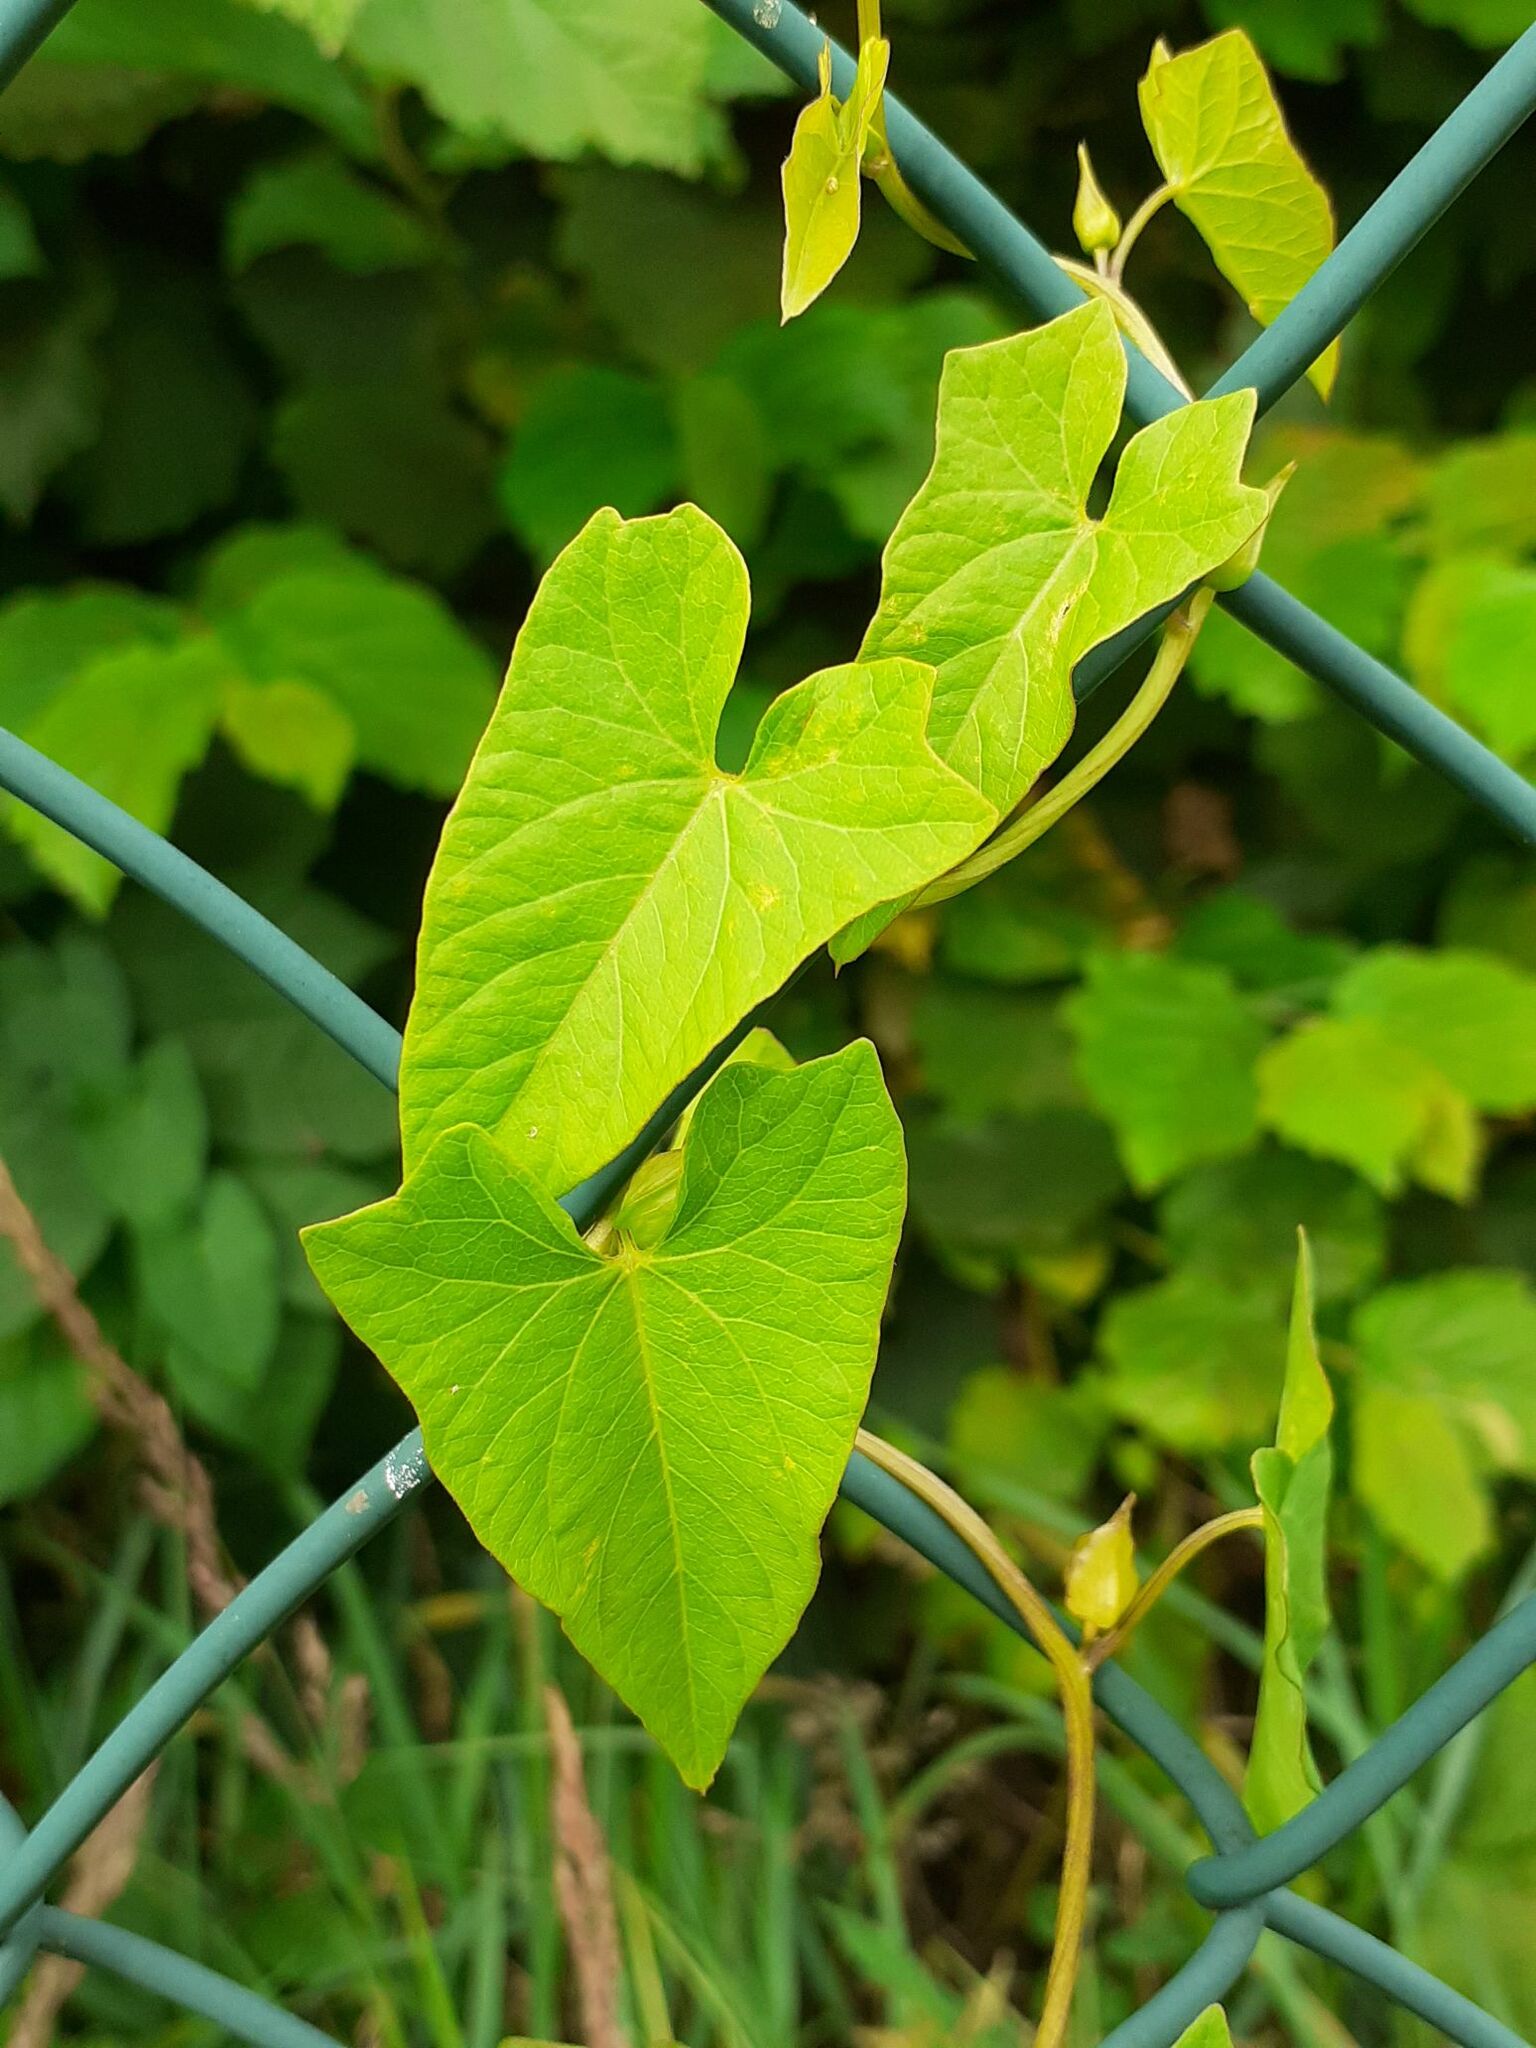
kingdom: Plantae
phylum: Tracheophyta
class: Magnoliopsida
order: Solanales
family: Convolvulaceae
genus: Calystegia
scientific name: Calystegia
